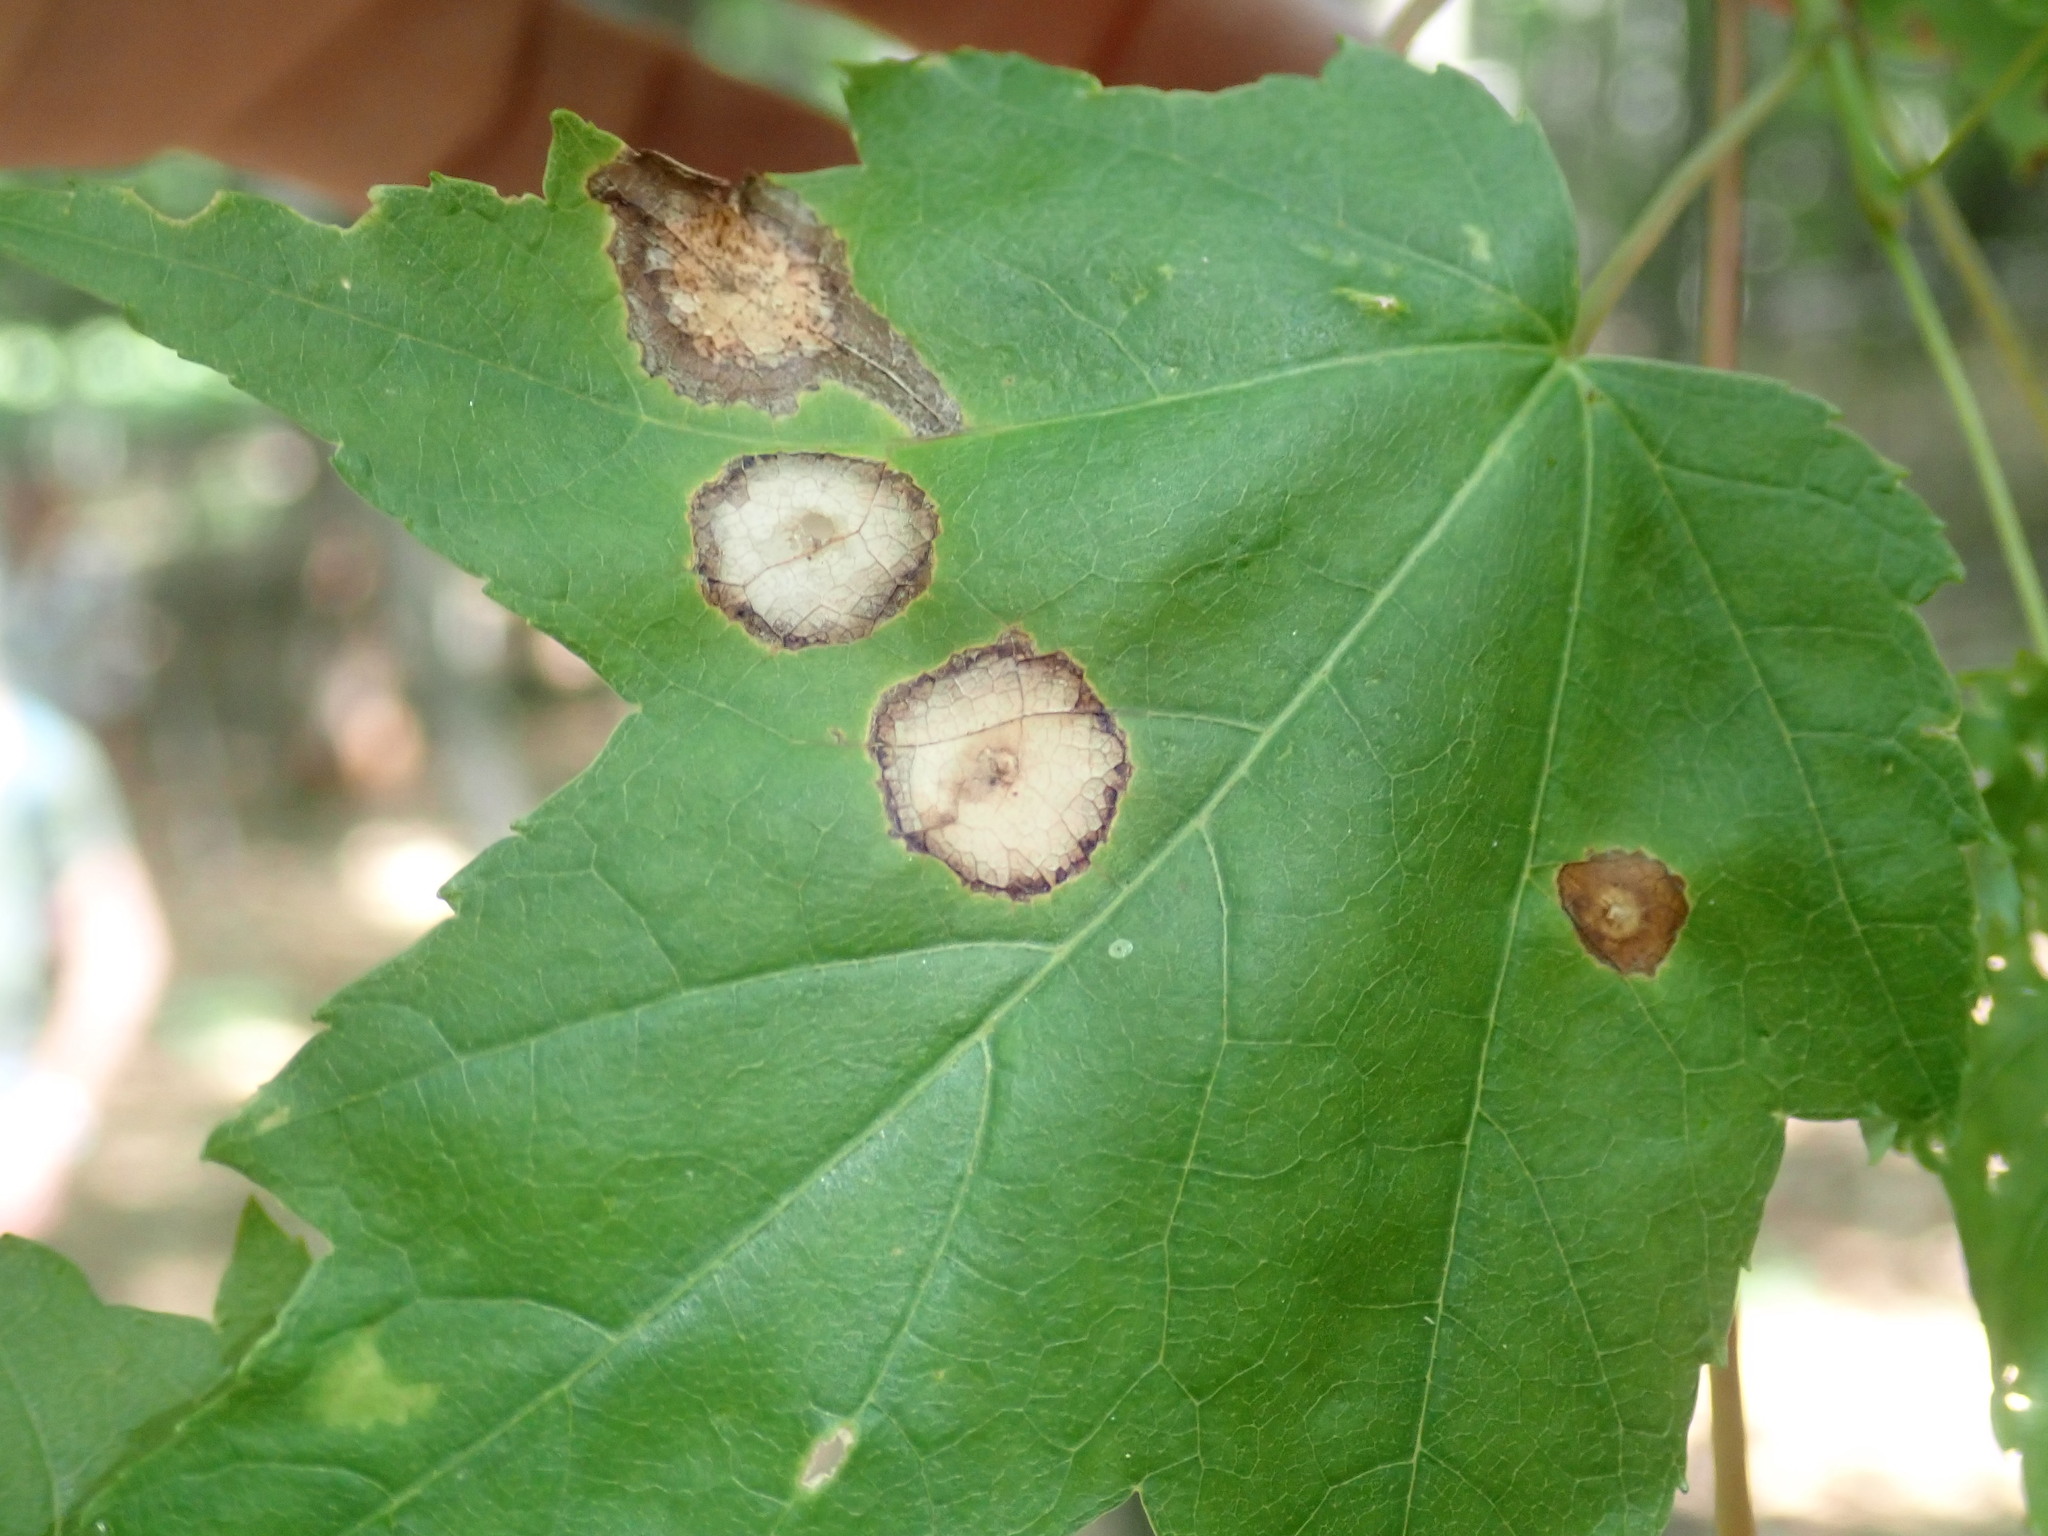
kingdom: Animalia
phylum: Arthropoda
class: Insecta
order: Diptera
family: Cecidomyiidae
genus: Acericecis
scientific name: Acericecis ocellaris
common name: Ocellate gall midge
